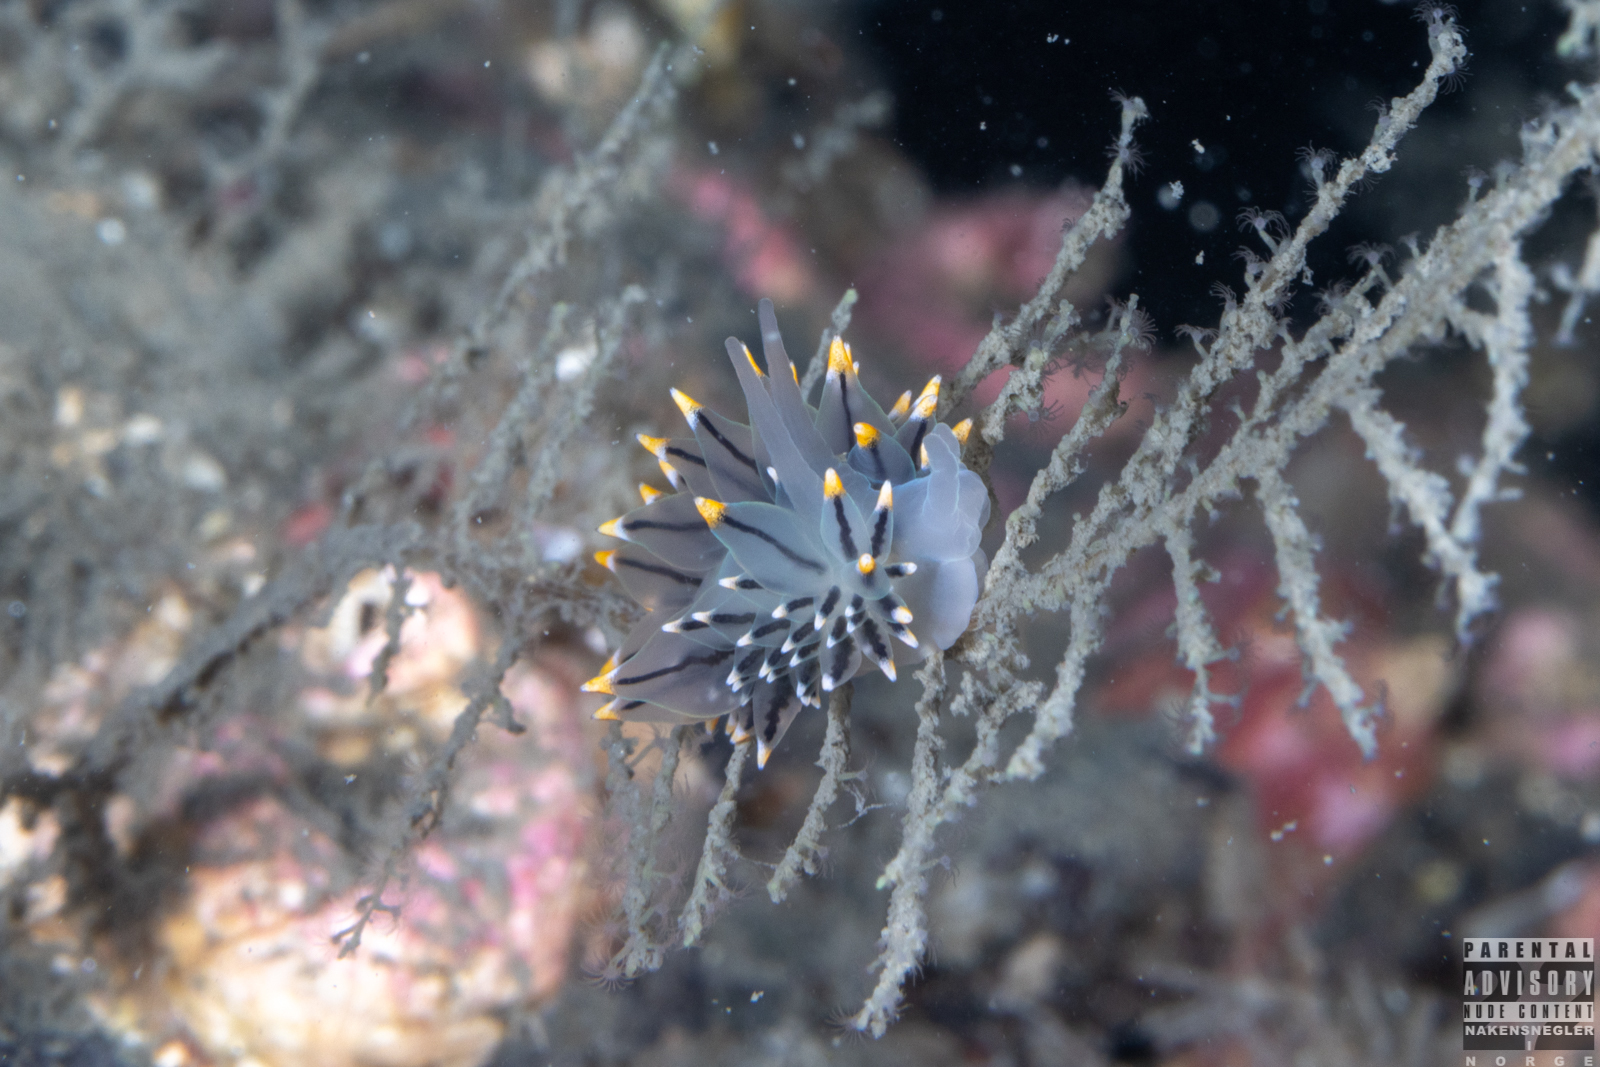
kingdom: Animalia
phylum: Mollusca
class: Gastropoda
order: Nudibranchia
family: Eubranchidae
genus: Eubranchus
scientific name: Eubranchus tricolor
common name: Painted balloon aeolis
